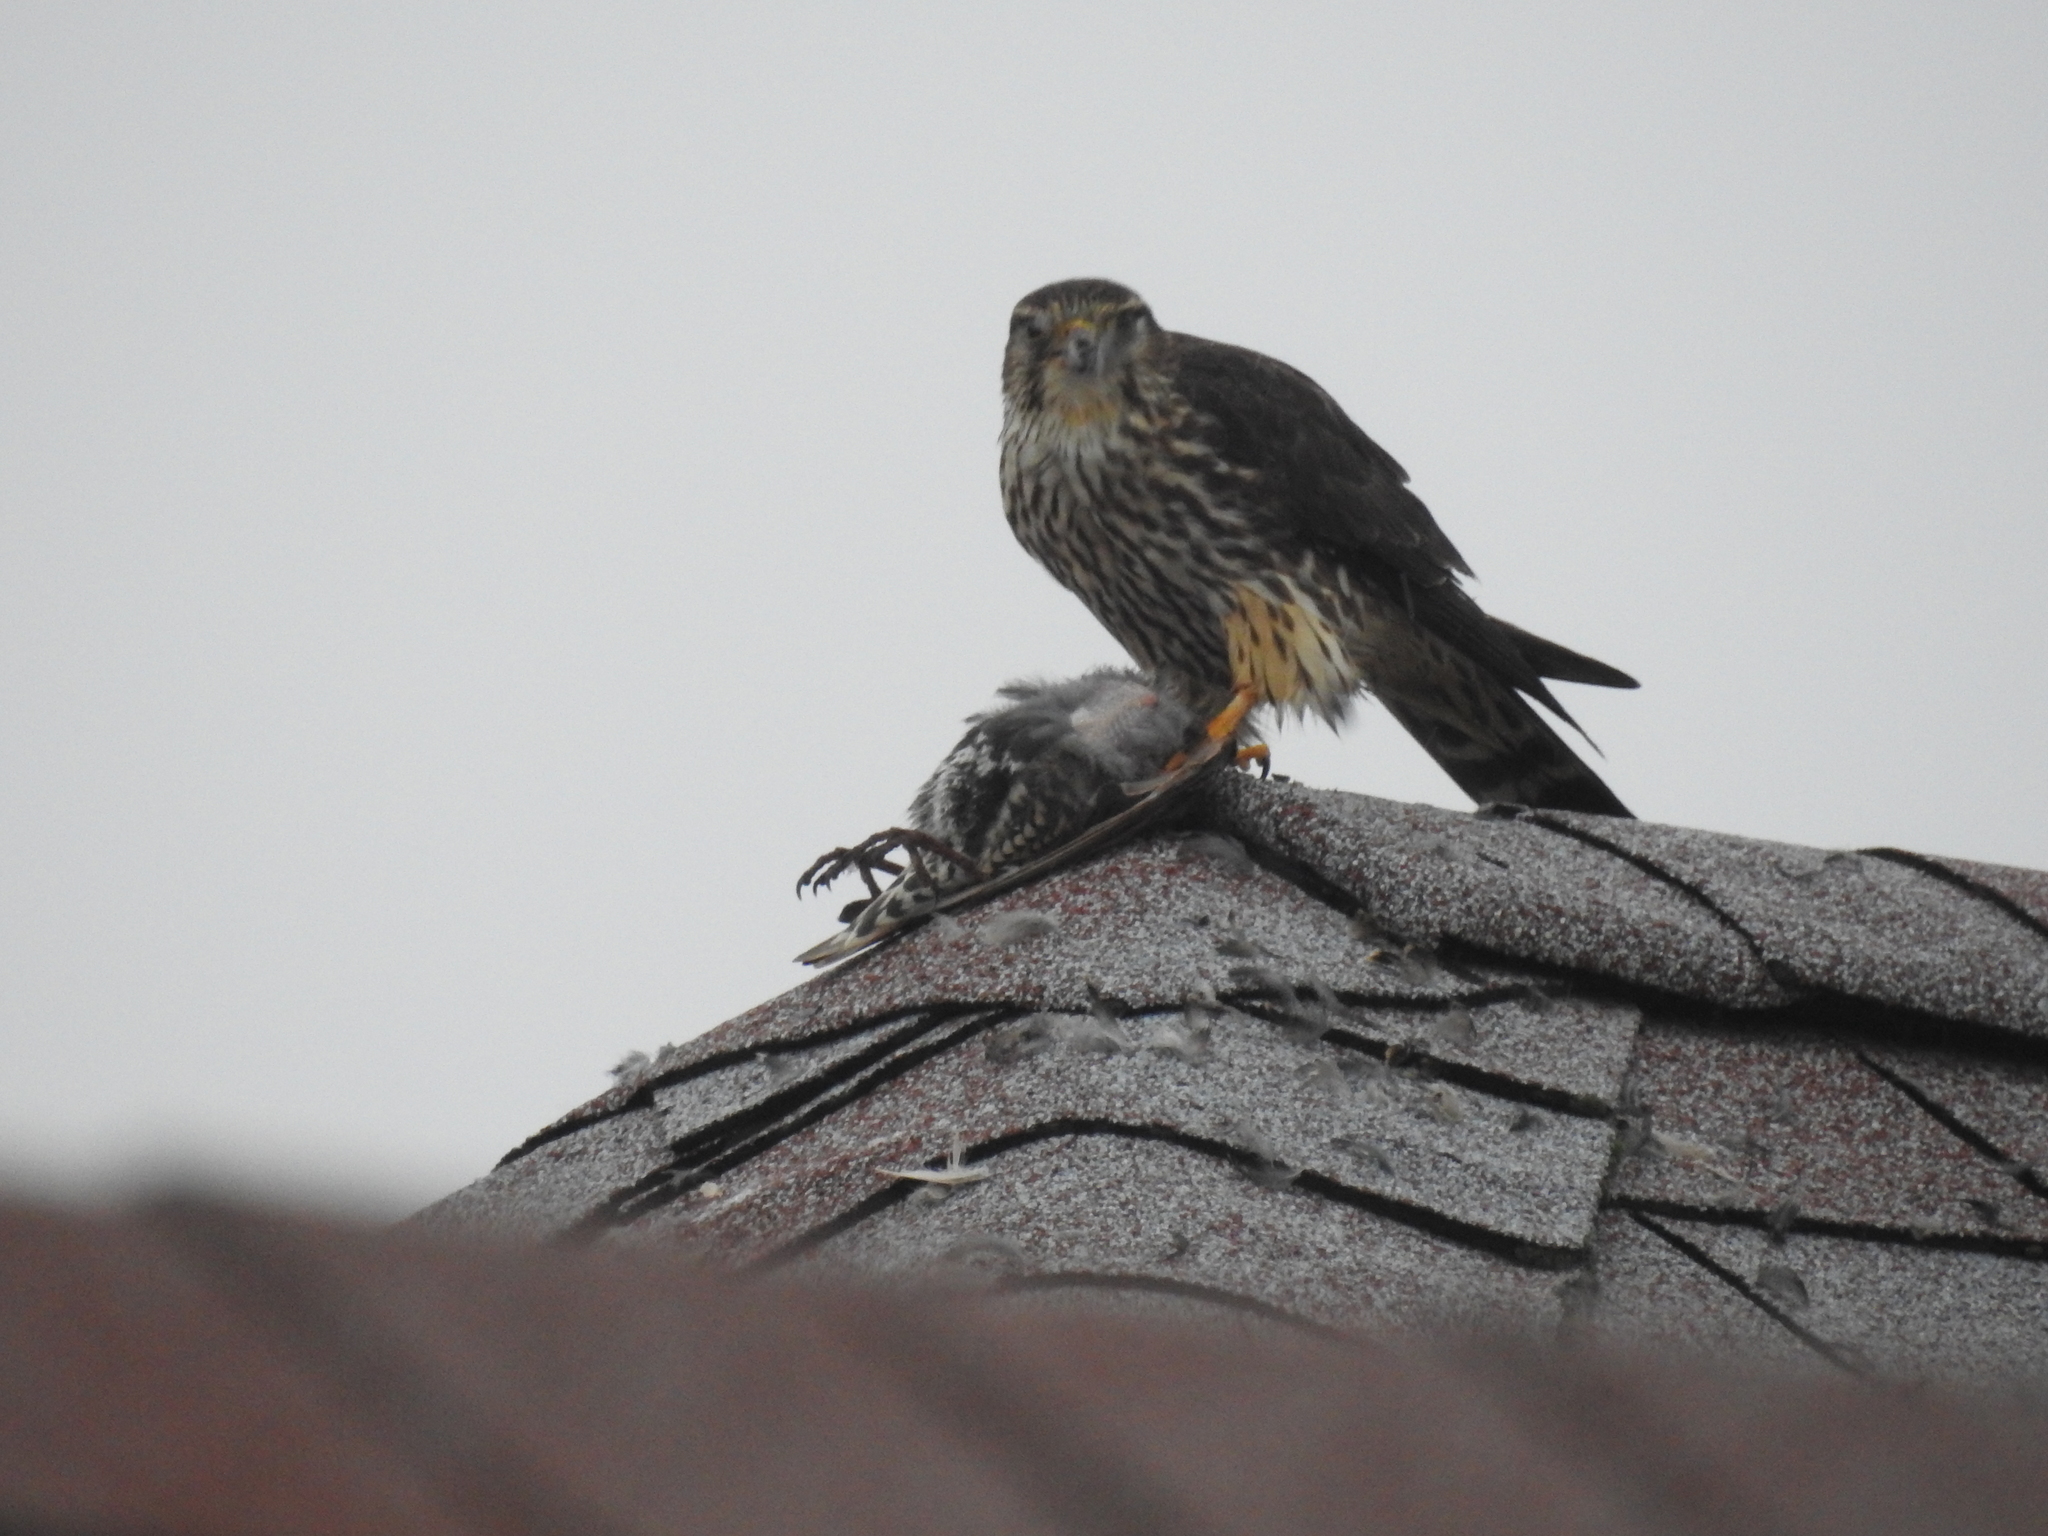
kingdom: Animalia
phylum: Chordata
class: Aves
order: Falconiformes
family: Falconidae
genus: Falco
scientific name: Falco columbarius
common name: Merlin
